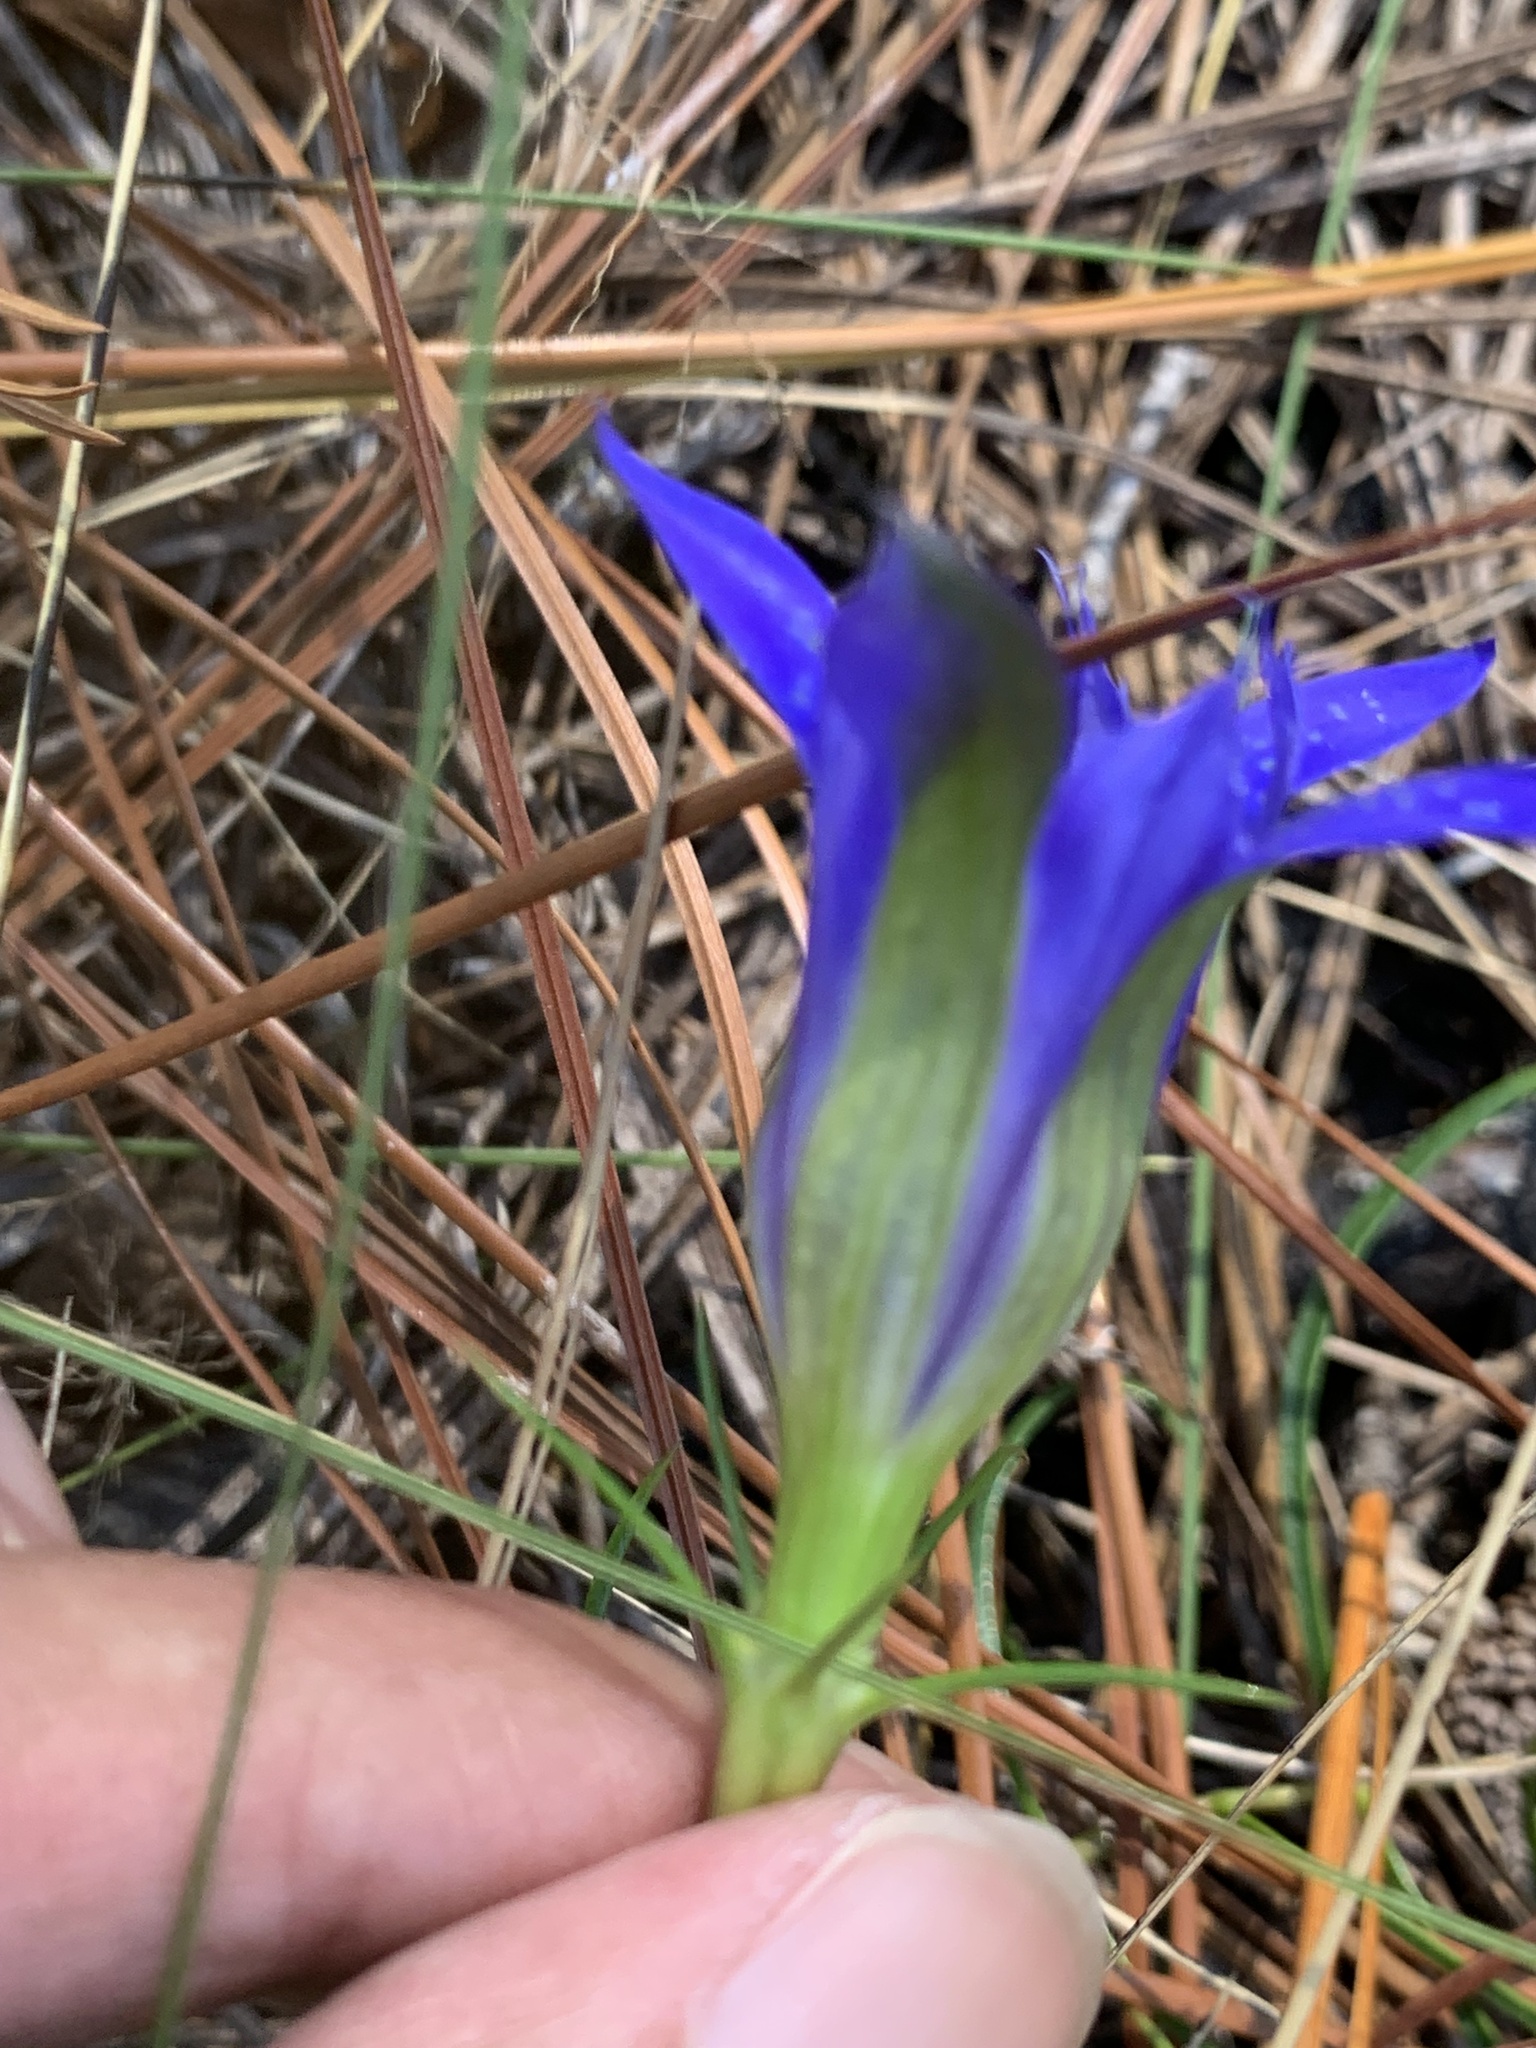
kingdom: Plantae
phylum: Tracheophyta
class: Magnoliopsida
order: Gentianales
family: Gentianaceae
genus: Gentiana
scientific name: Gentiana autumnalis
